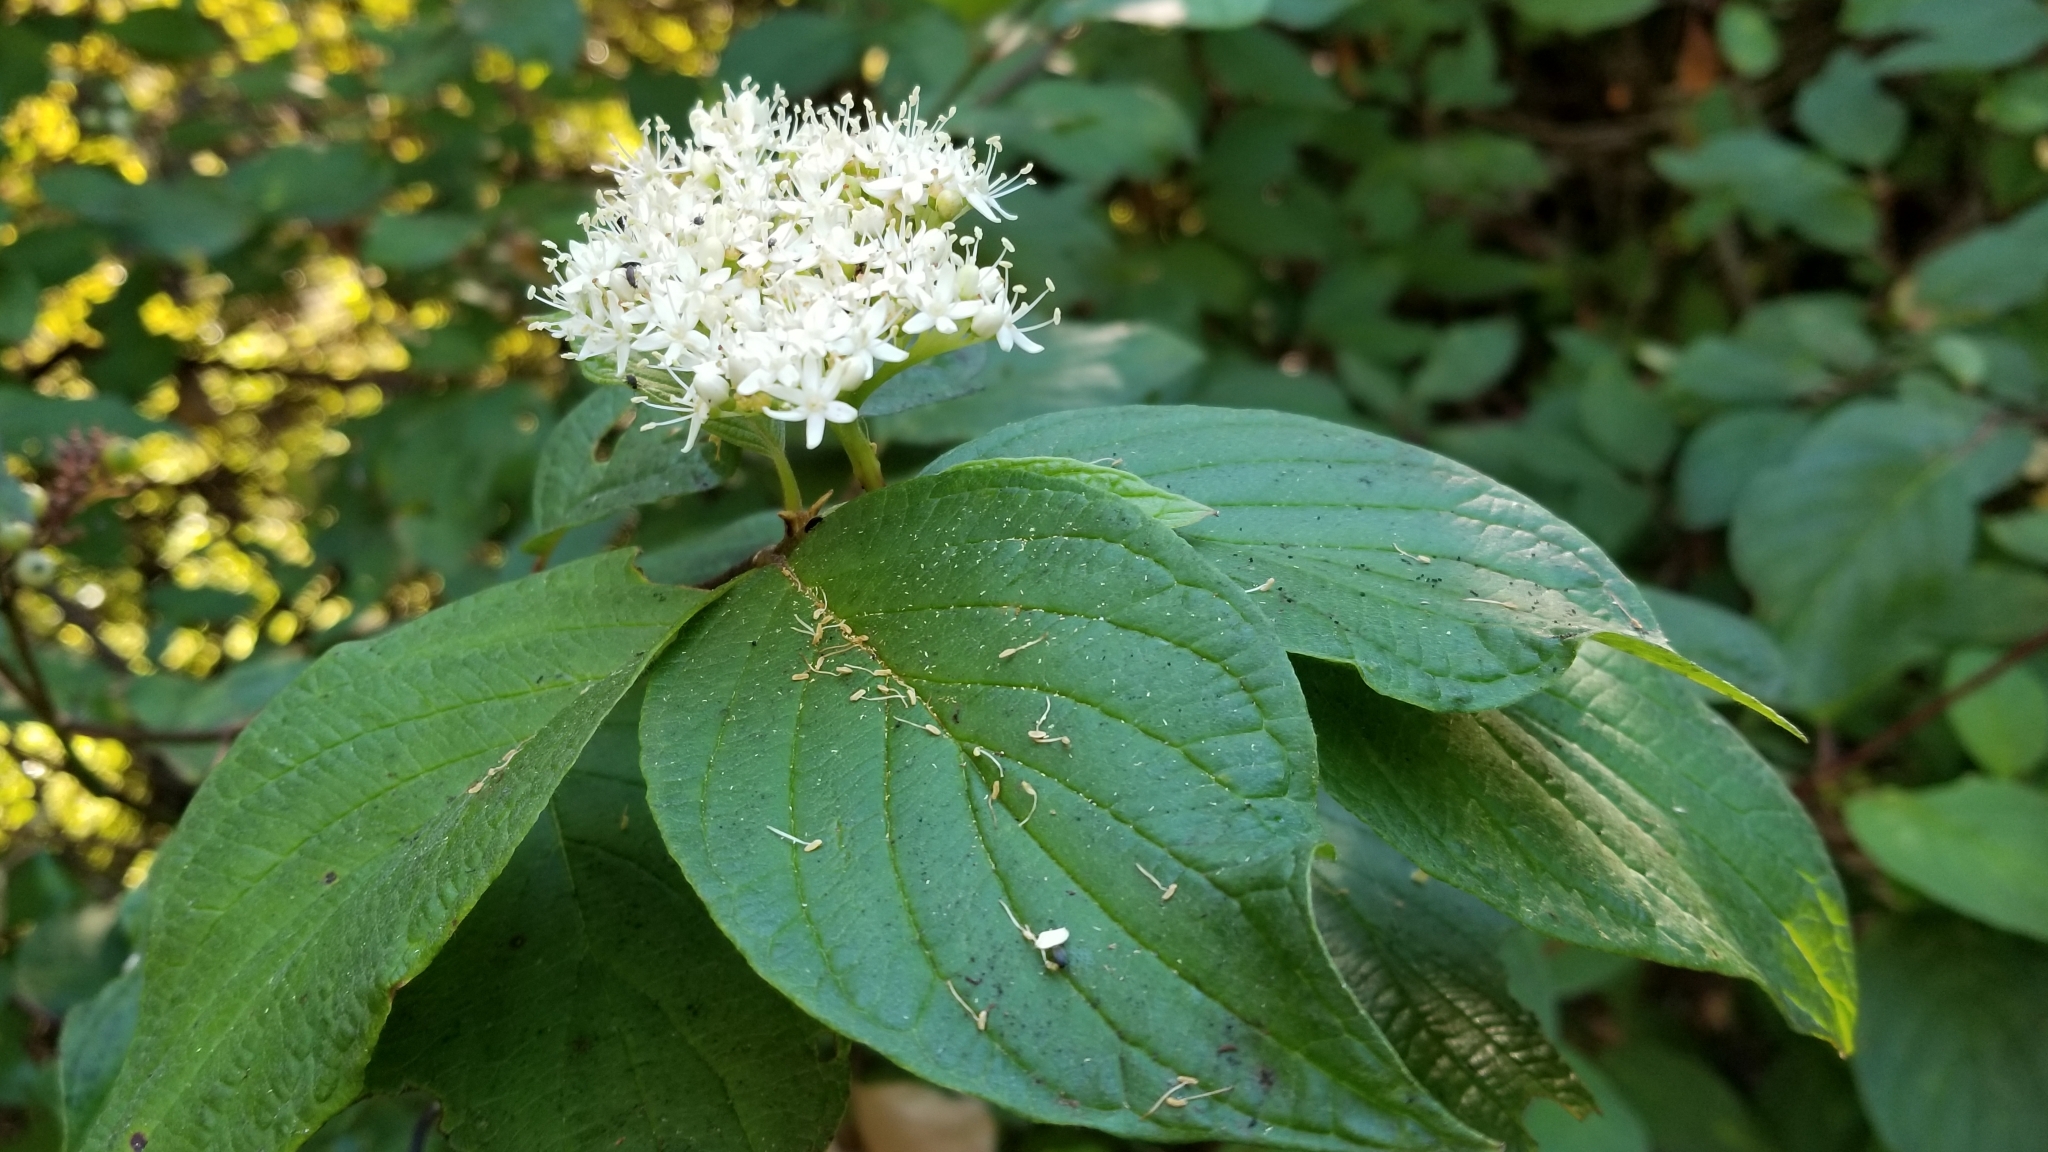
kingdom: Plantae
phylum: Tracheophyta
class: Magnoliopsida
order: Cornales
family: Cornaceae
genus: Cornus
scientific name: Cornus sericea
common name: Red-osier dogwood
